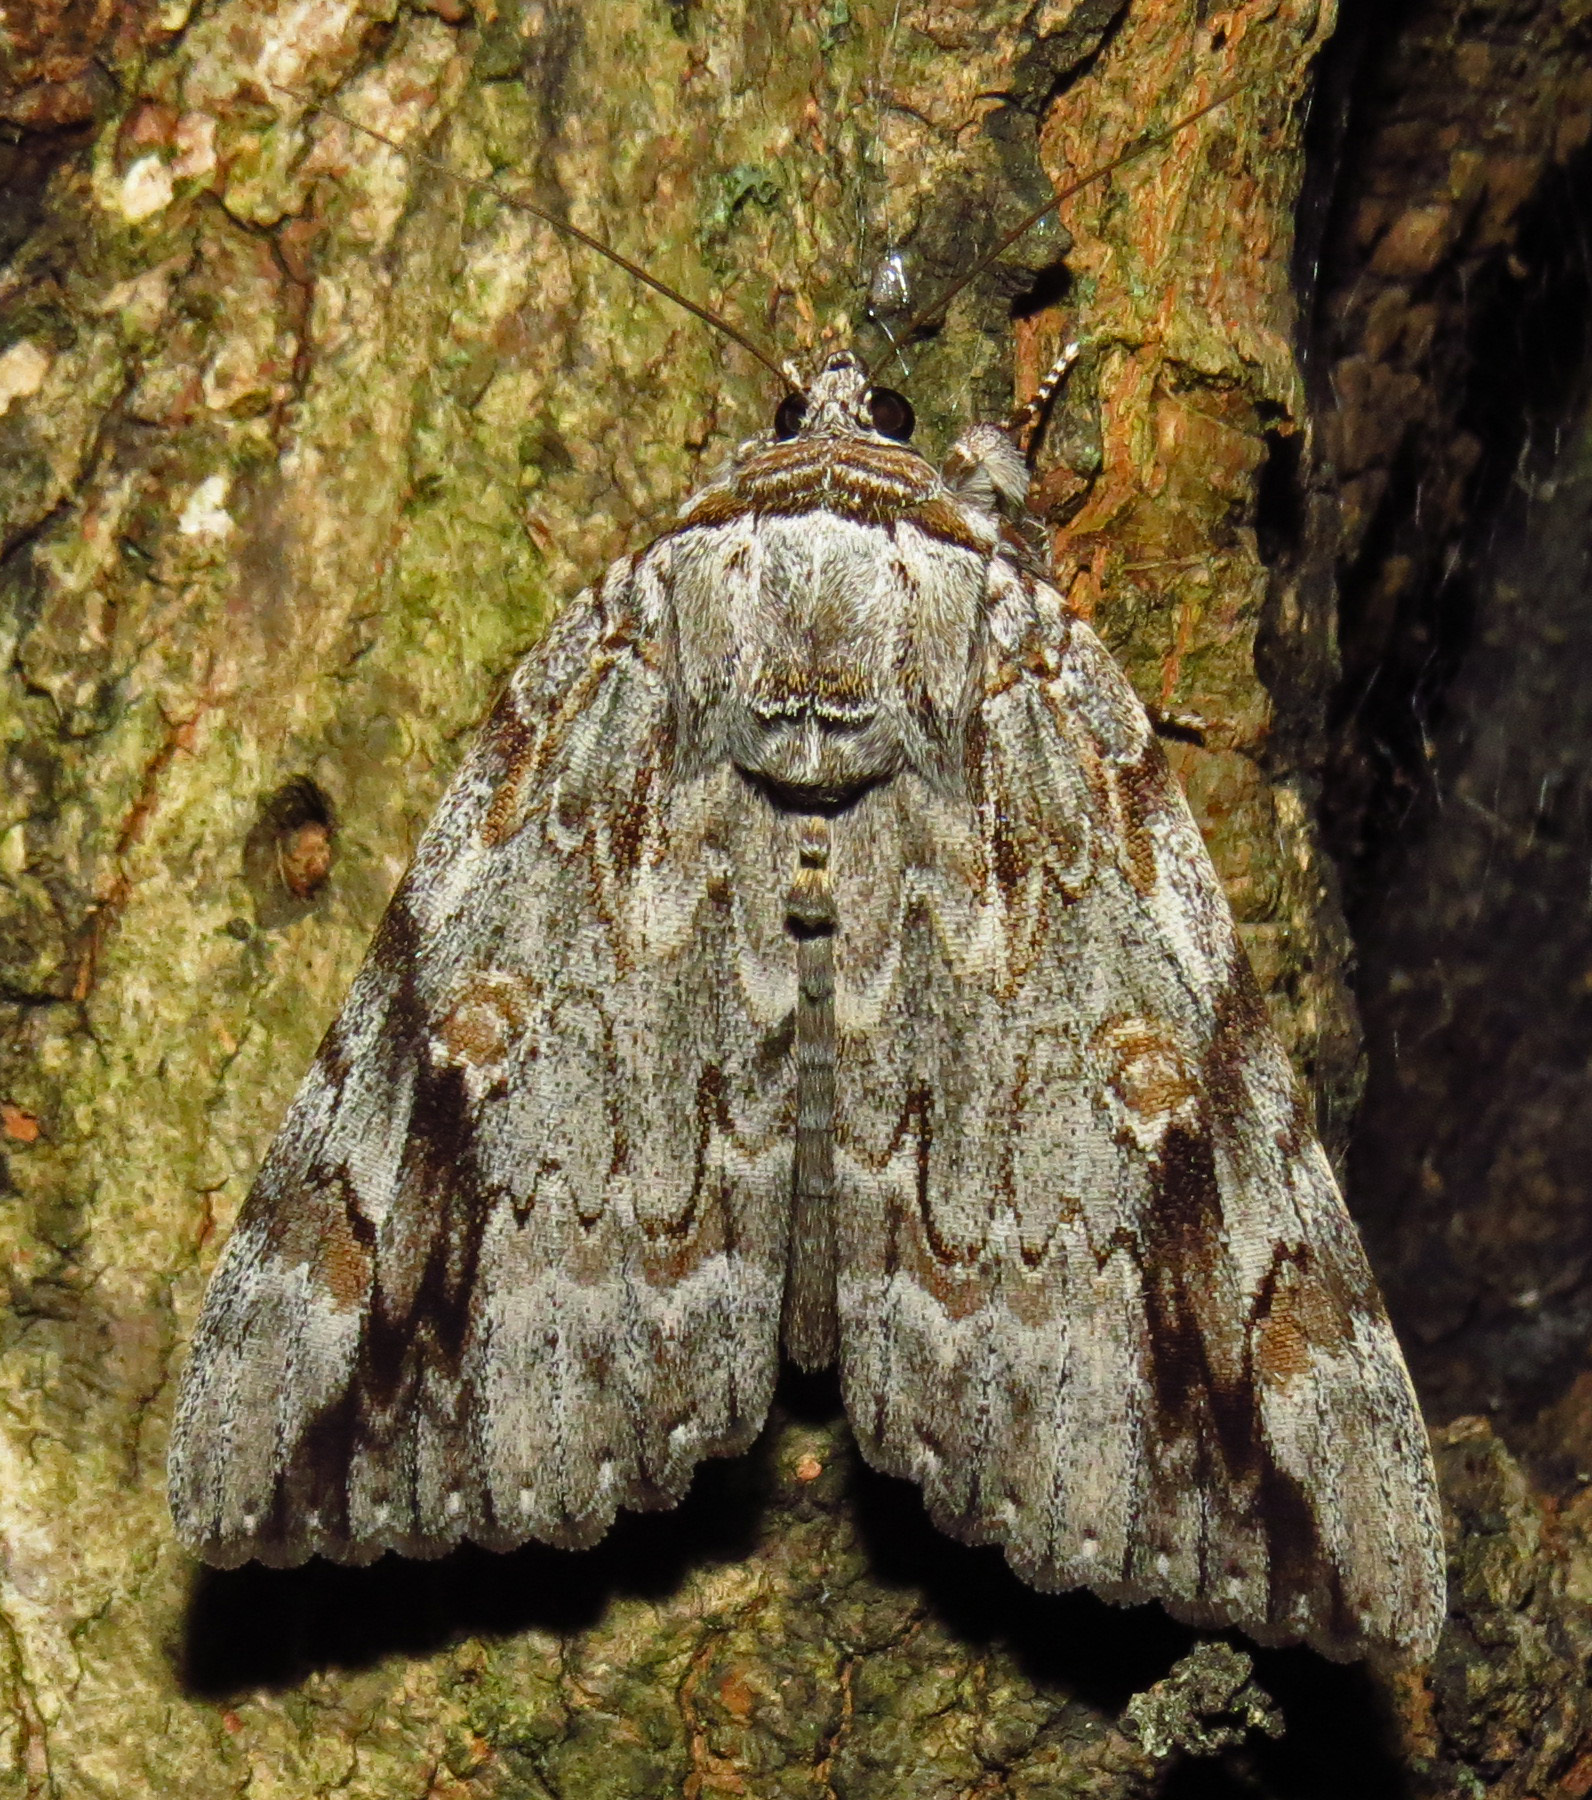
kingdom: Animalia
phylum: Arthropoda
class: Insecta
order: Lepidoptera
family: Erebidae
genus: Catocala
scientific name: Catocala maestosa
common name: Sad underwing
